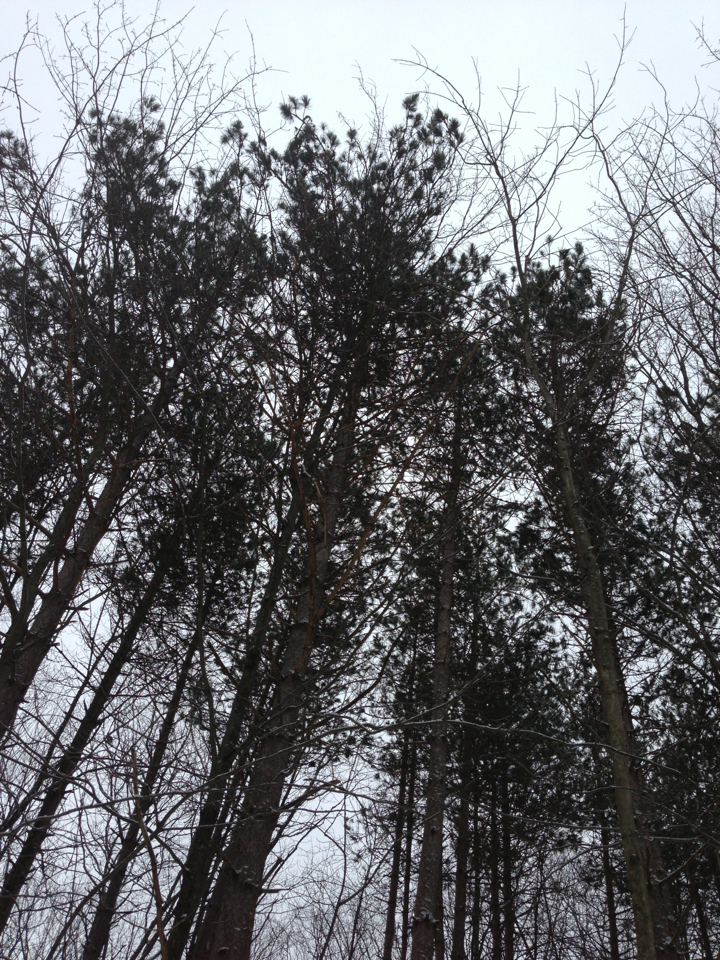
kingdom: Plantae
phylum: Tracheophyta
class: Pinopsida
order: Pinales
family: Pinaceae
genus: Pinus
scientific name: Pinus resinosa
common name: Norway pine
